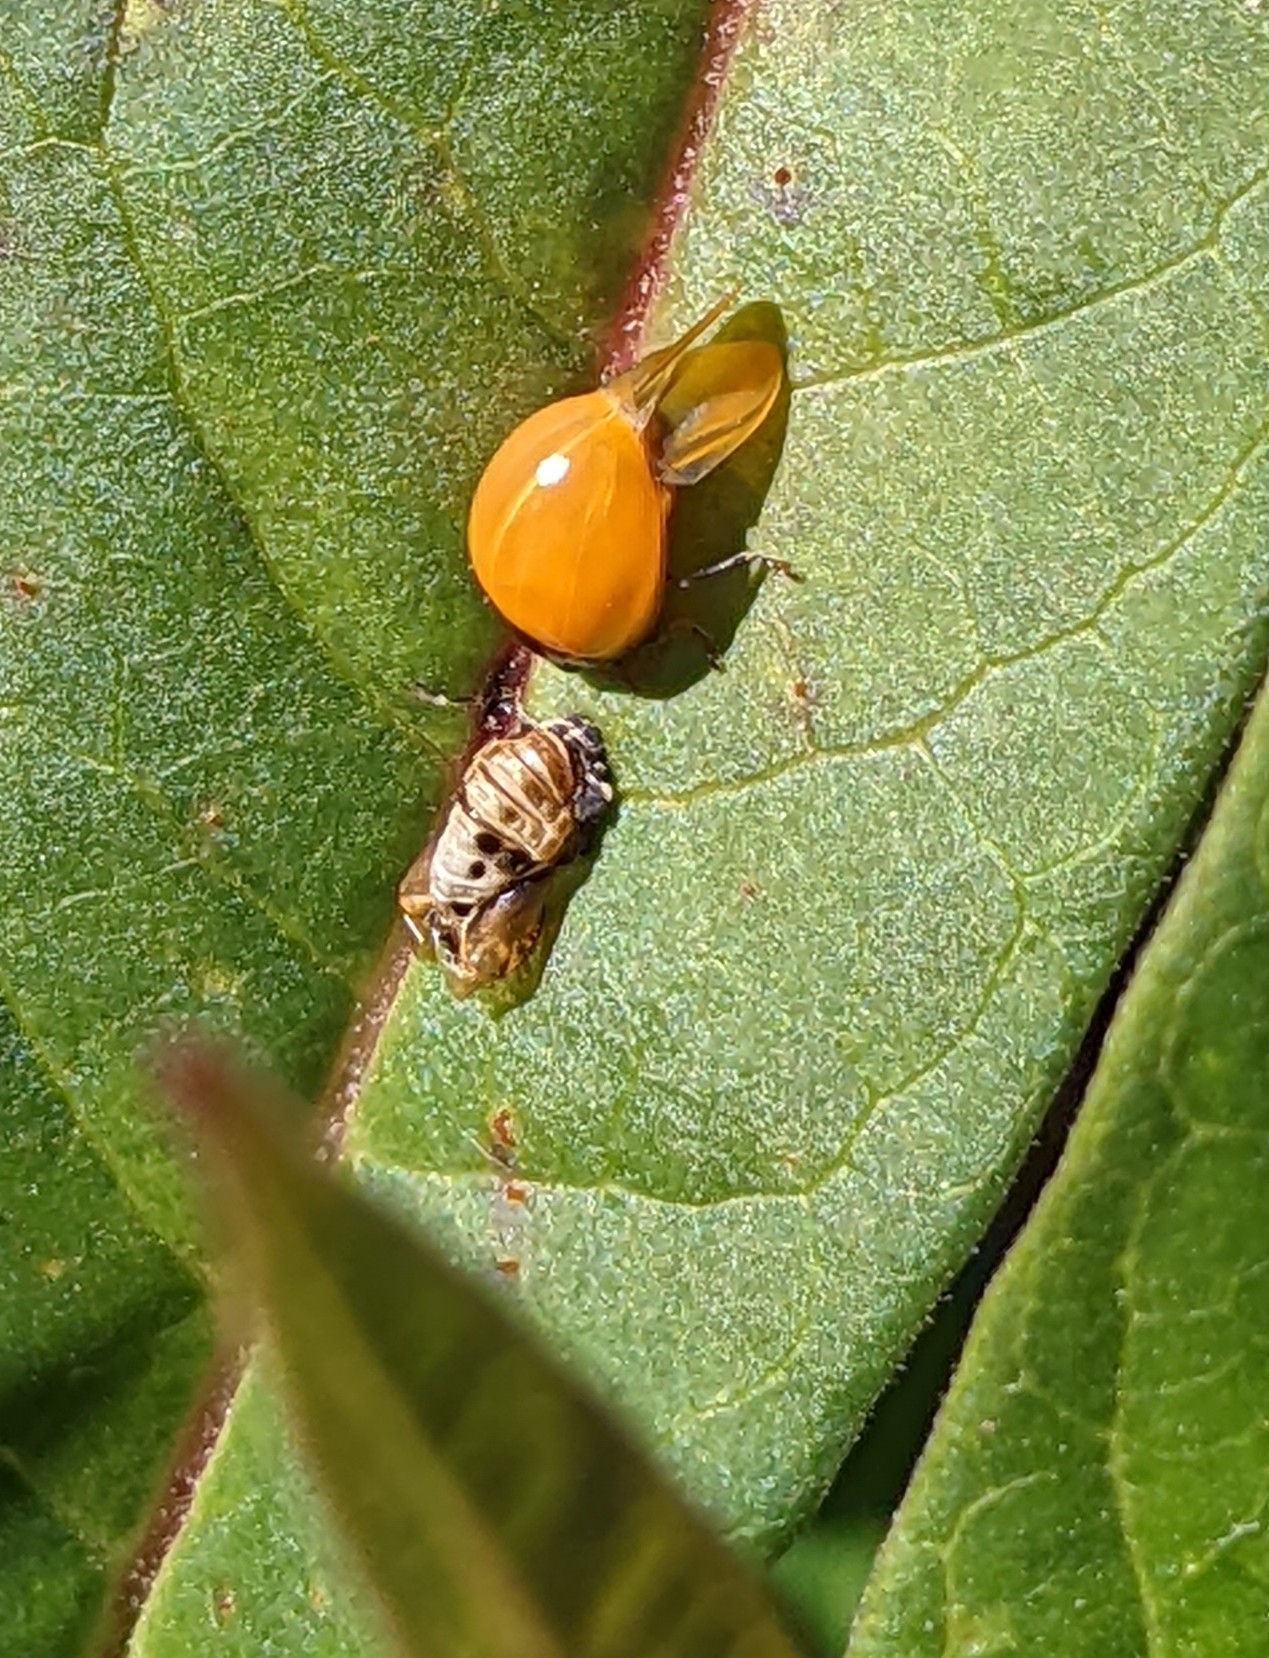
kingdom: Animalia
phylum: Arthropoda
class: Insecta
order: Coleoptera
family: Coccinellidae
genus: Cycloneda
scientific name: Cycloneda munda
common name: Polished lady beetle
